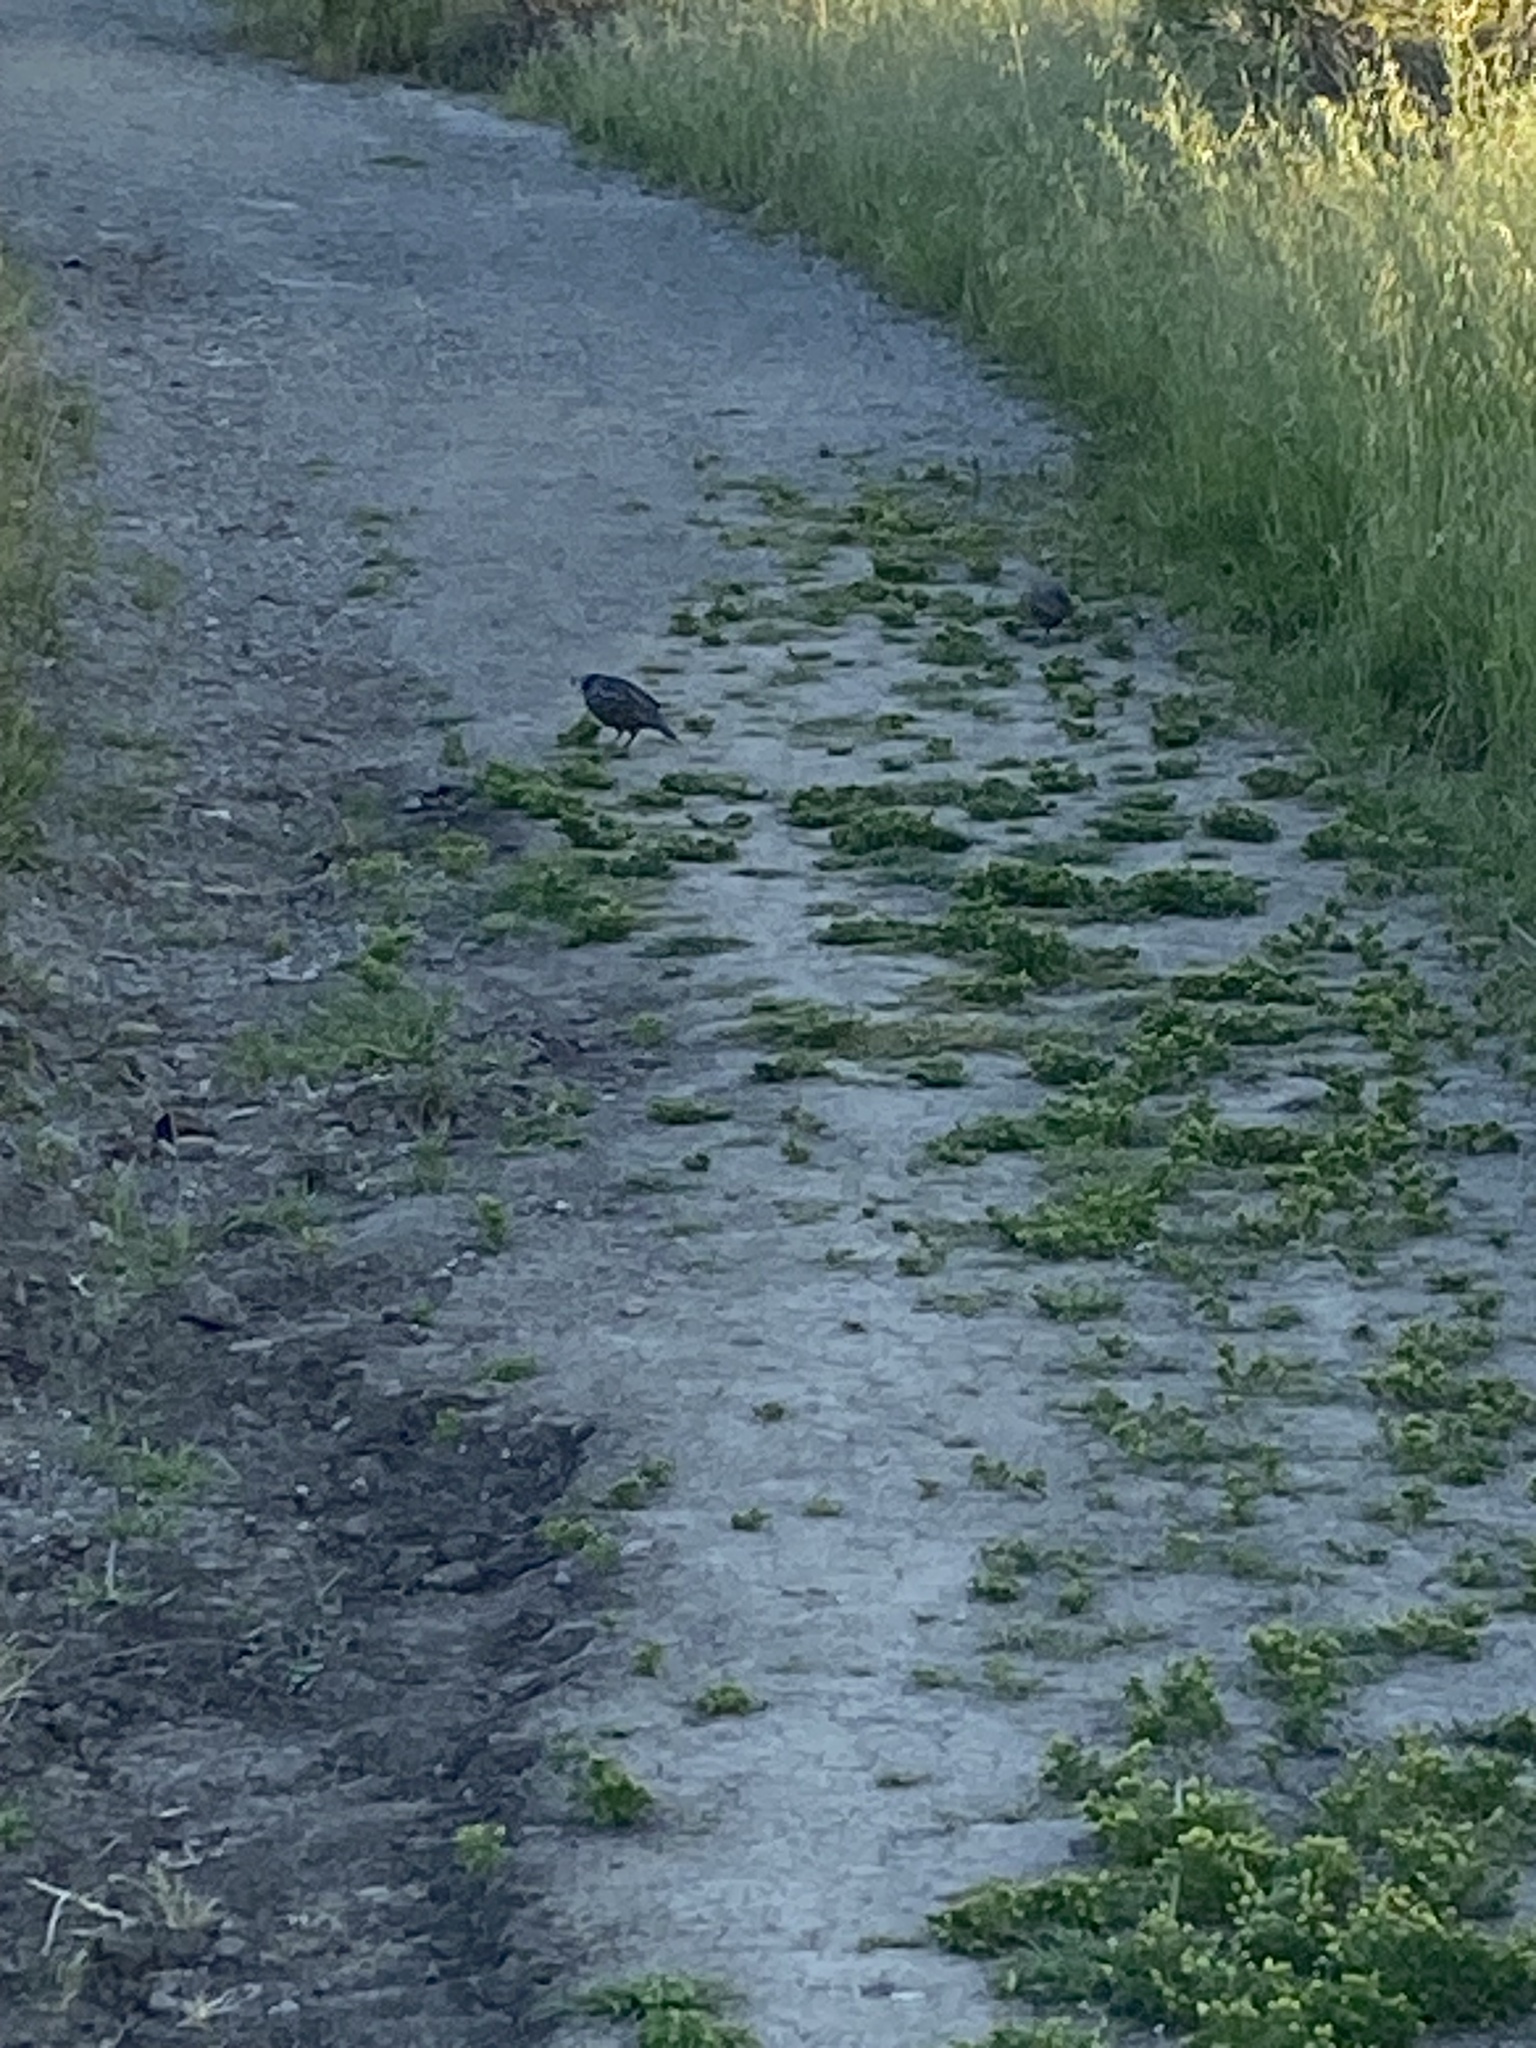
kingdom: Animalia
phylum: Chordata
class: Aves
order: Galliformes
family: Odontophoridae
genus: Callipepla
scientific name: Callipepla californica
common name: California quail
